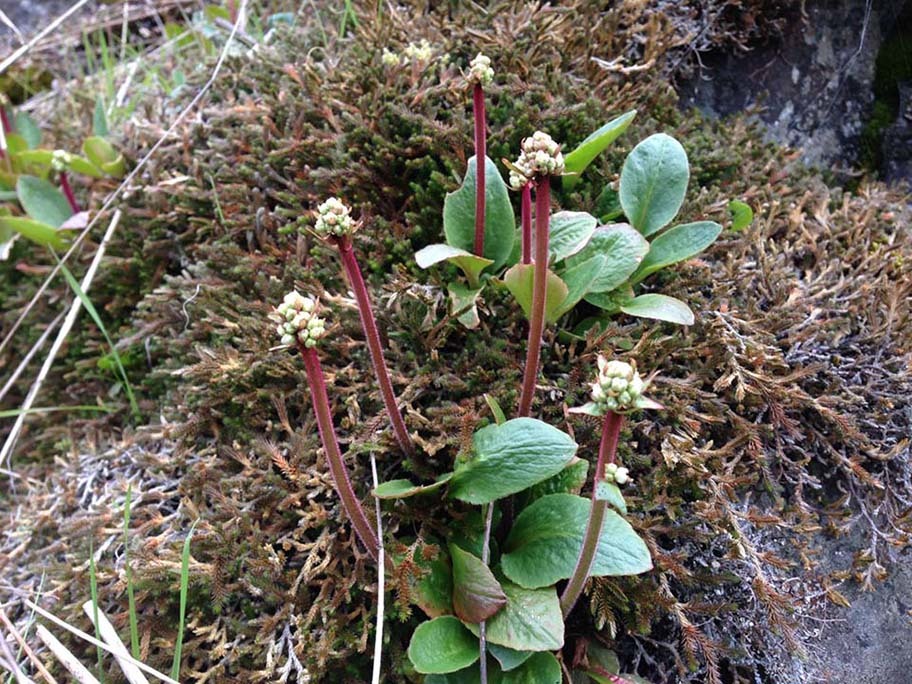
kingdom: Plantae
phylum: Tracheophyta
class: Magnoliopsida
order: Saxifragales
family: Saxifragaceae
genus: Micranthes
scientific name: Micranthes integrifolia
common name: Wholeleaf saxifrage
